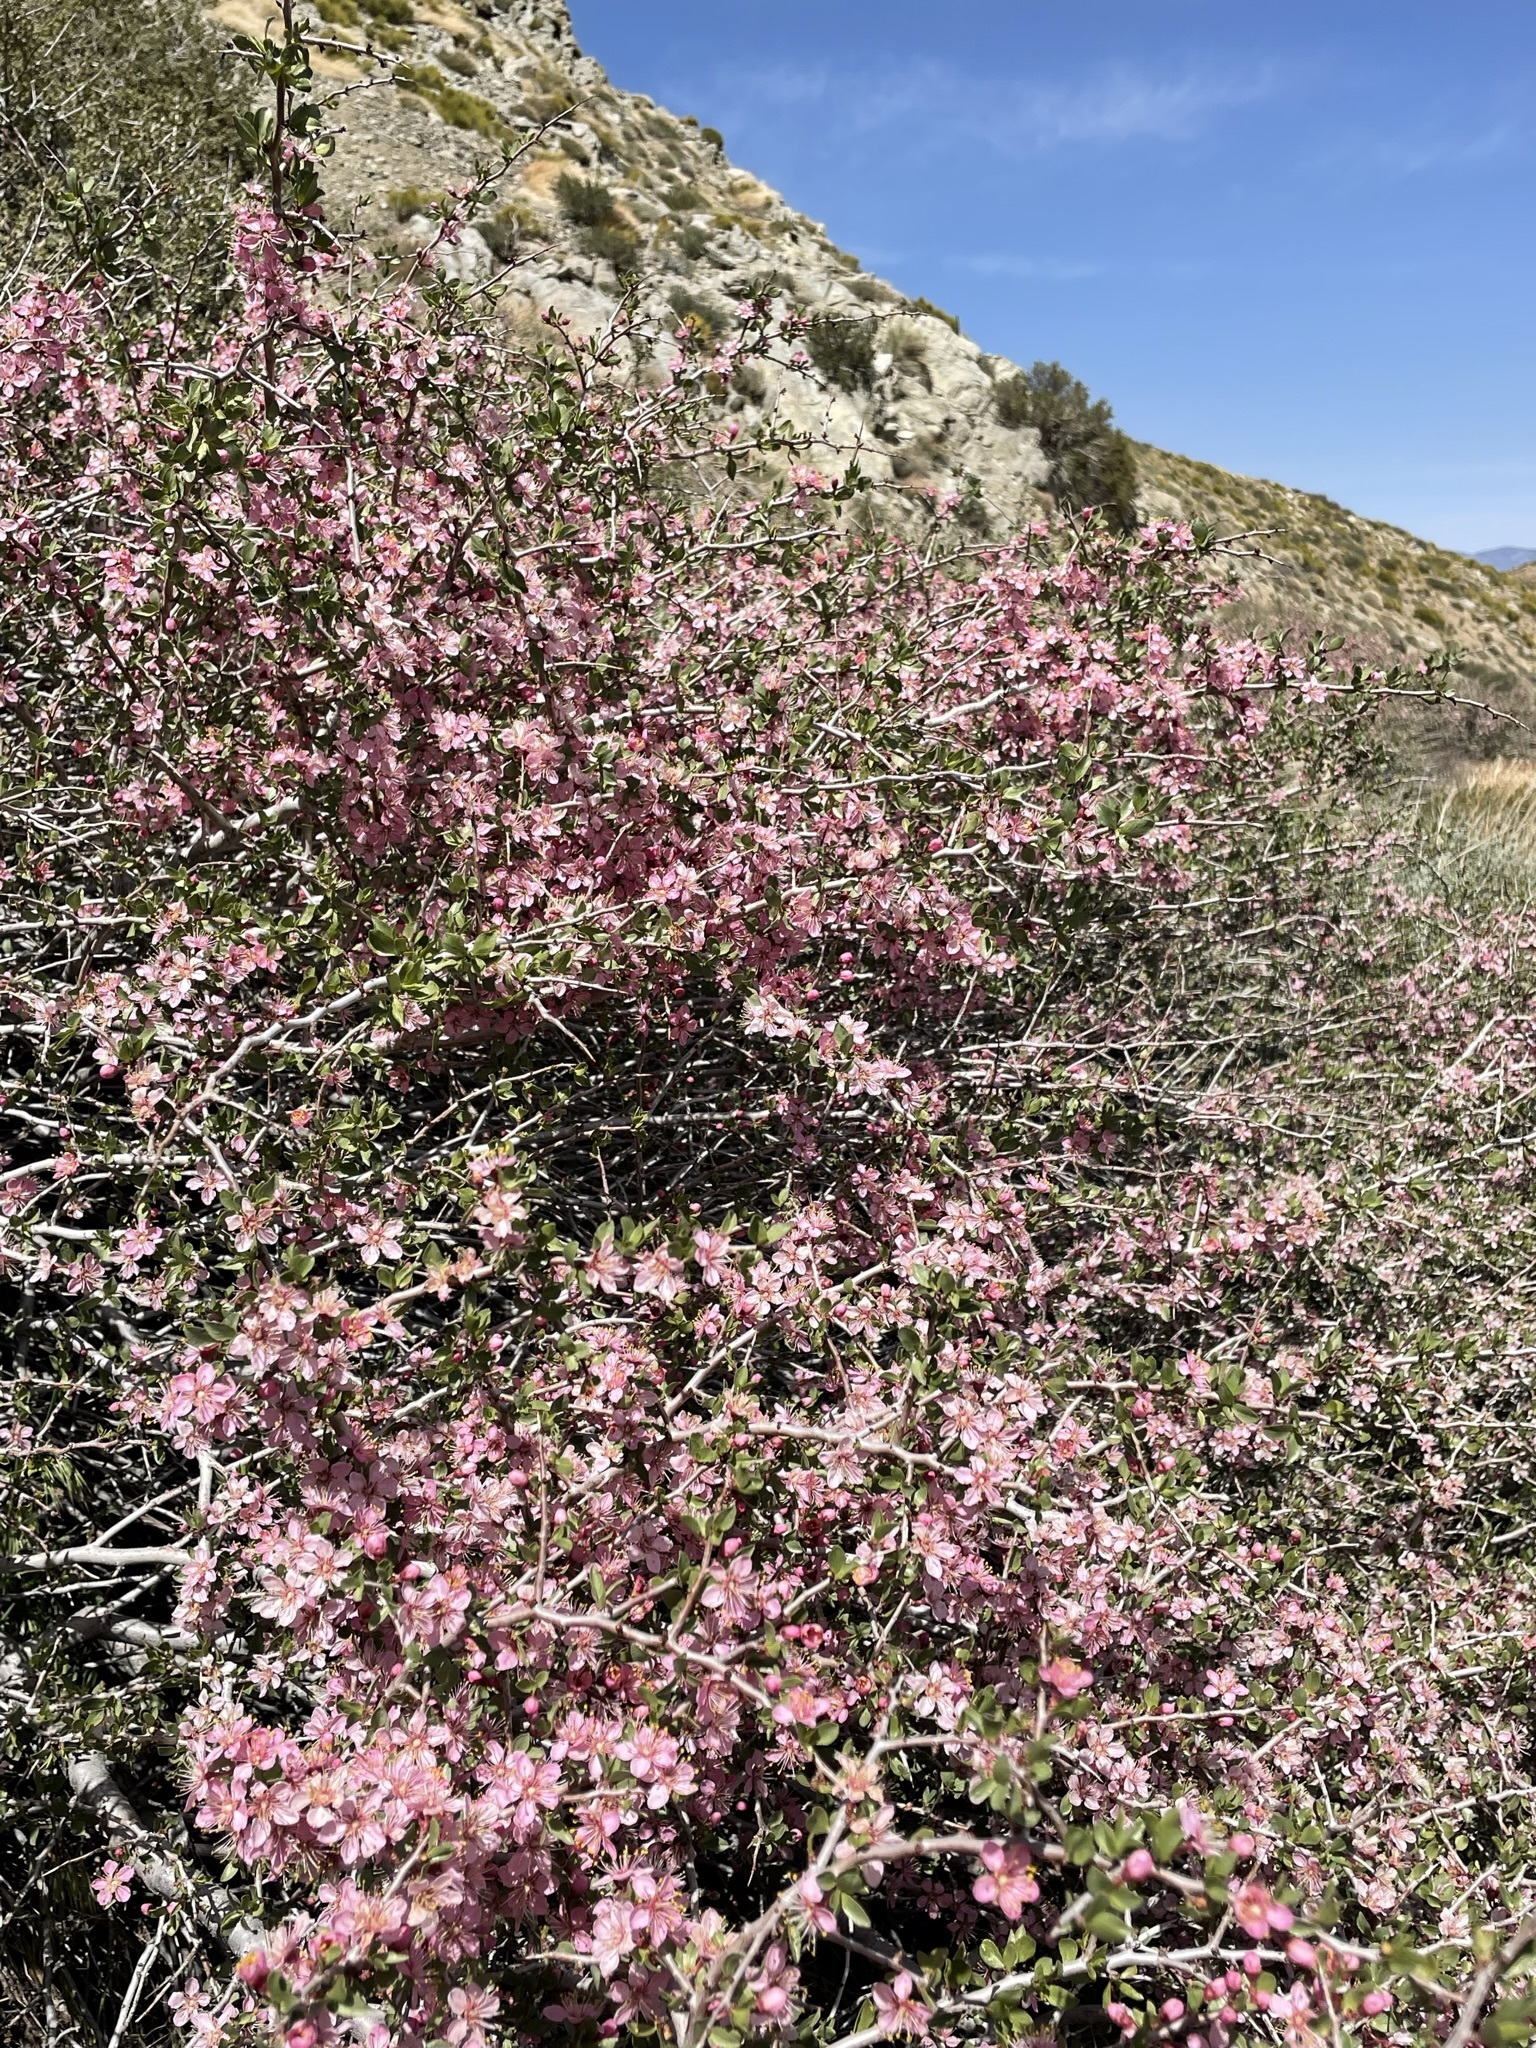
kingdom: Plantae
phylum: Tracheophyta
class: Magnoliopsida
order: Rosales
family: Rosaceae
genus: Prunus
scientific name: Prunus andersonii
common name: Desert peach
